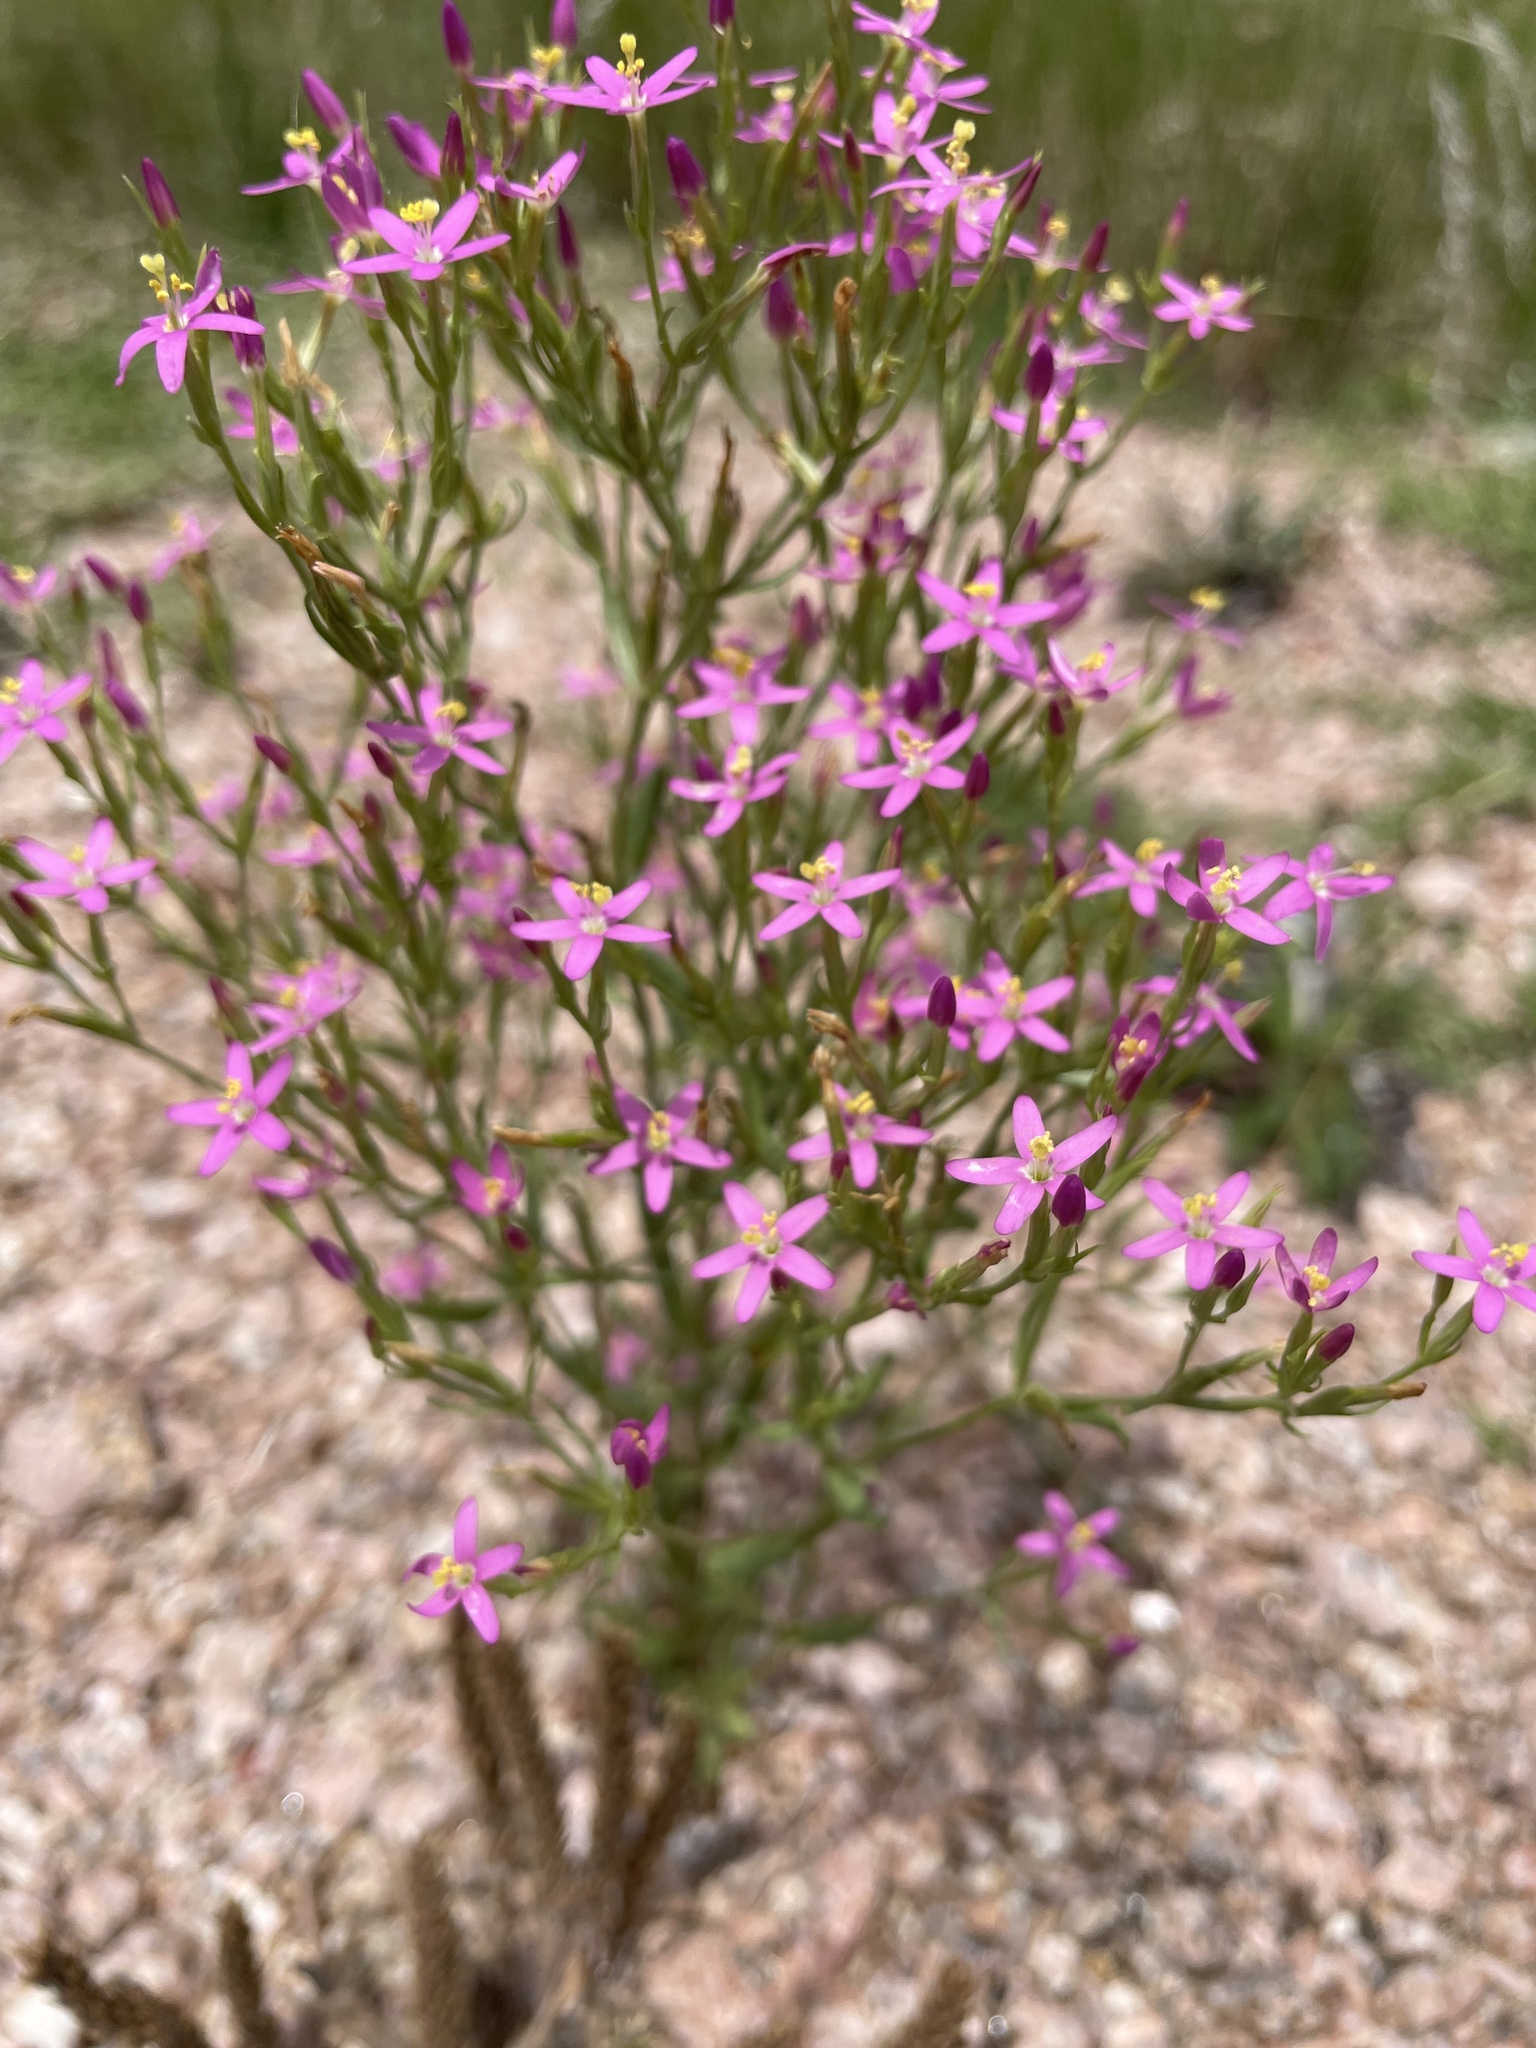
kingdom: Plantae
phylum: Tracheophyta
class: Magnoliopsida
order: Gentianales
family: Gentianaceae
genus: Centaurium
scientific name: Centaurium pulchellum
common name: Lesser centaury
